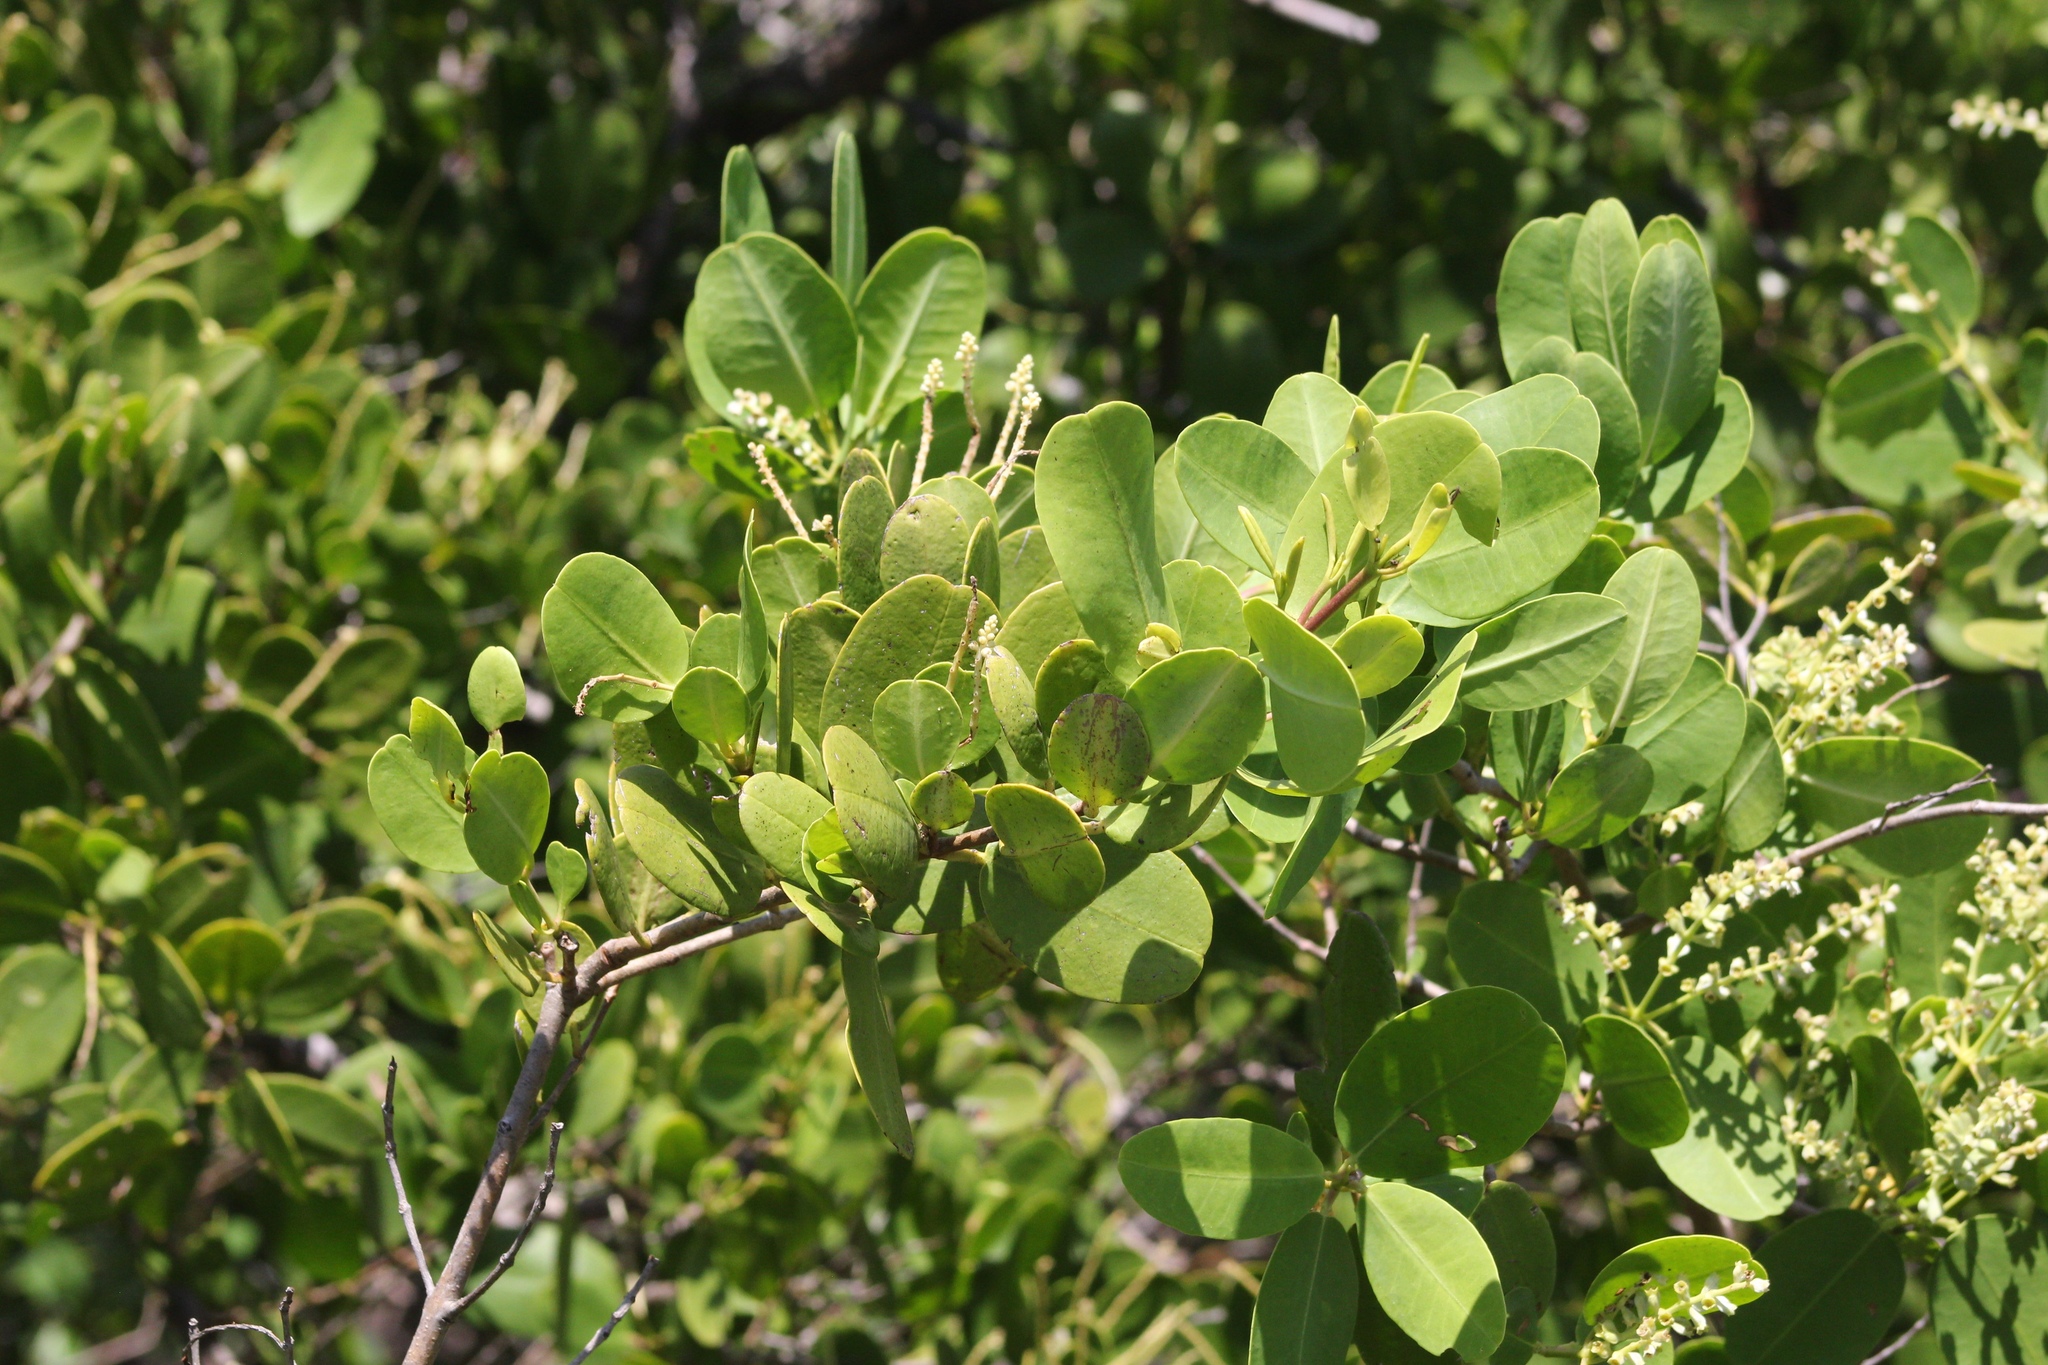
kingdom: Plantae
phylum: Tracheophyta
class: Magnoliopsida
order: Myrtales
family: Combretaceae
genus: Laguncularia
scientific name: Laguncularia racemosa
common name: White mangrove
